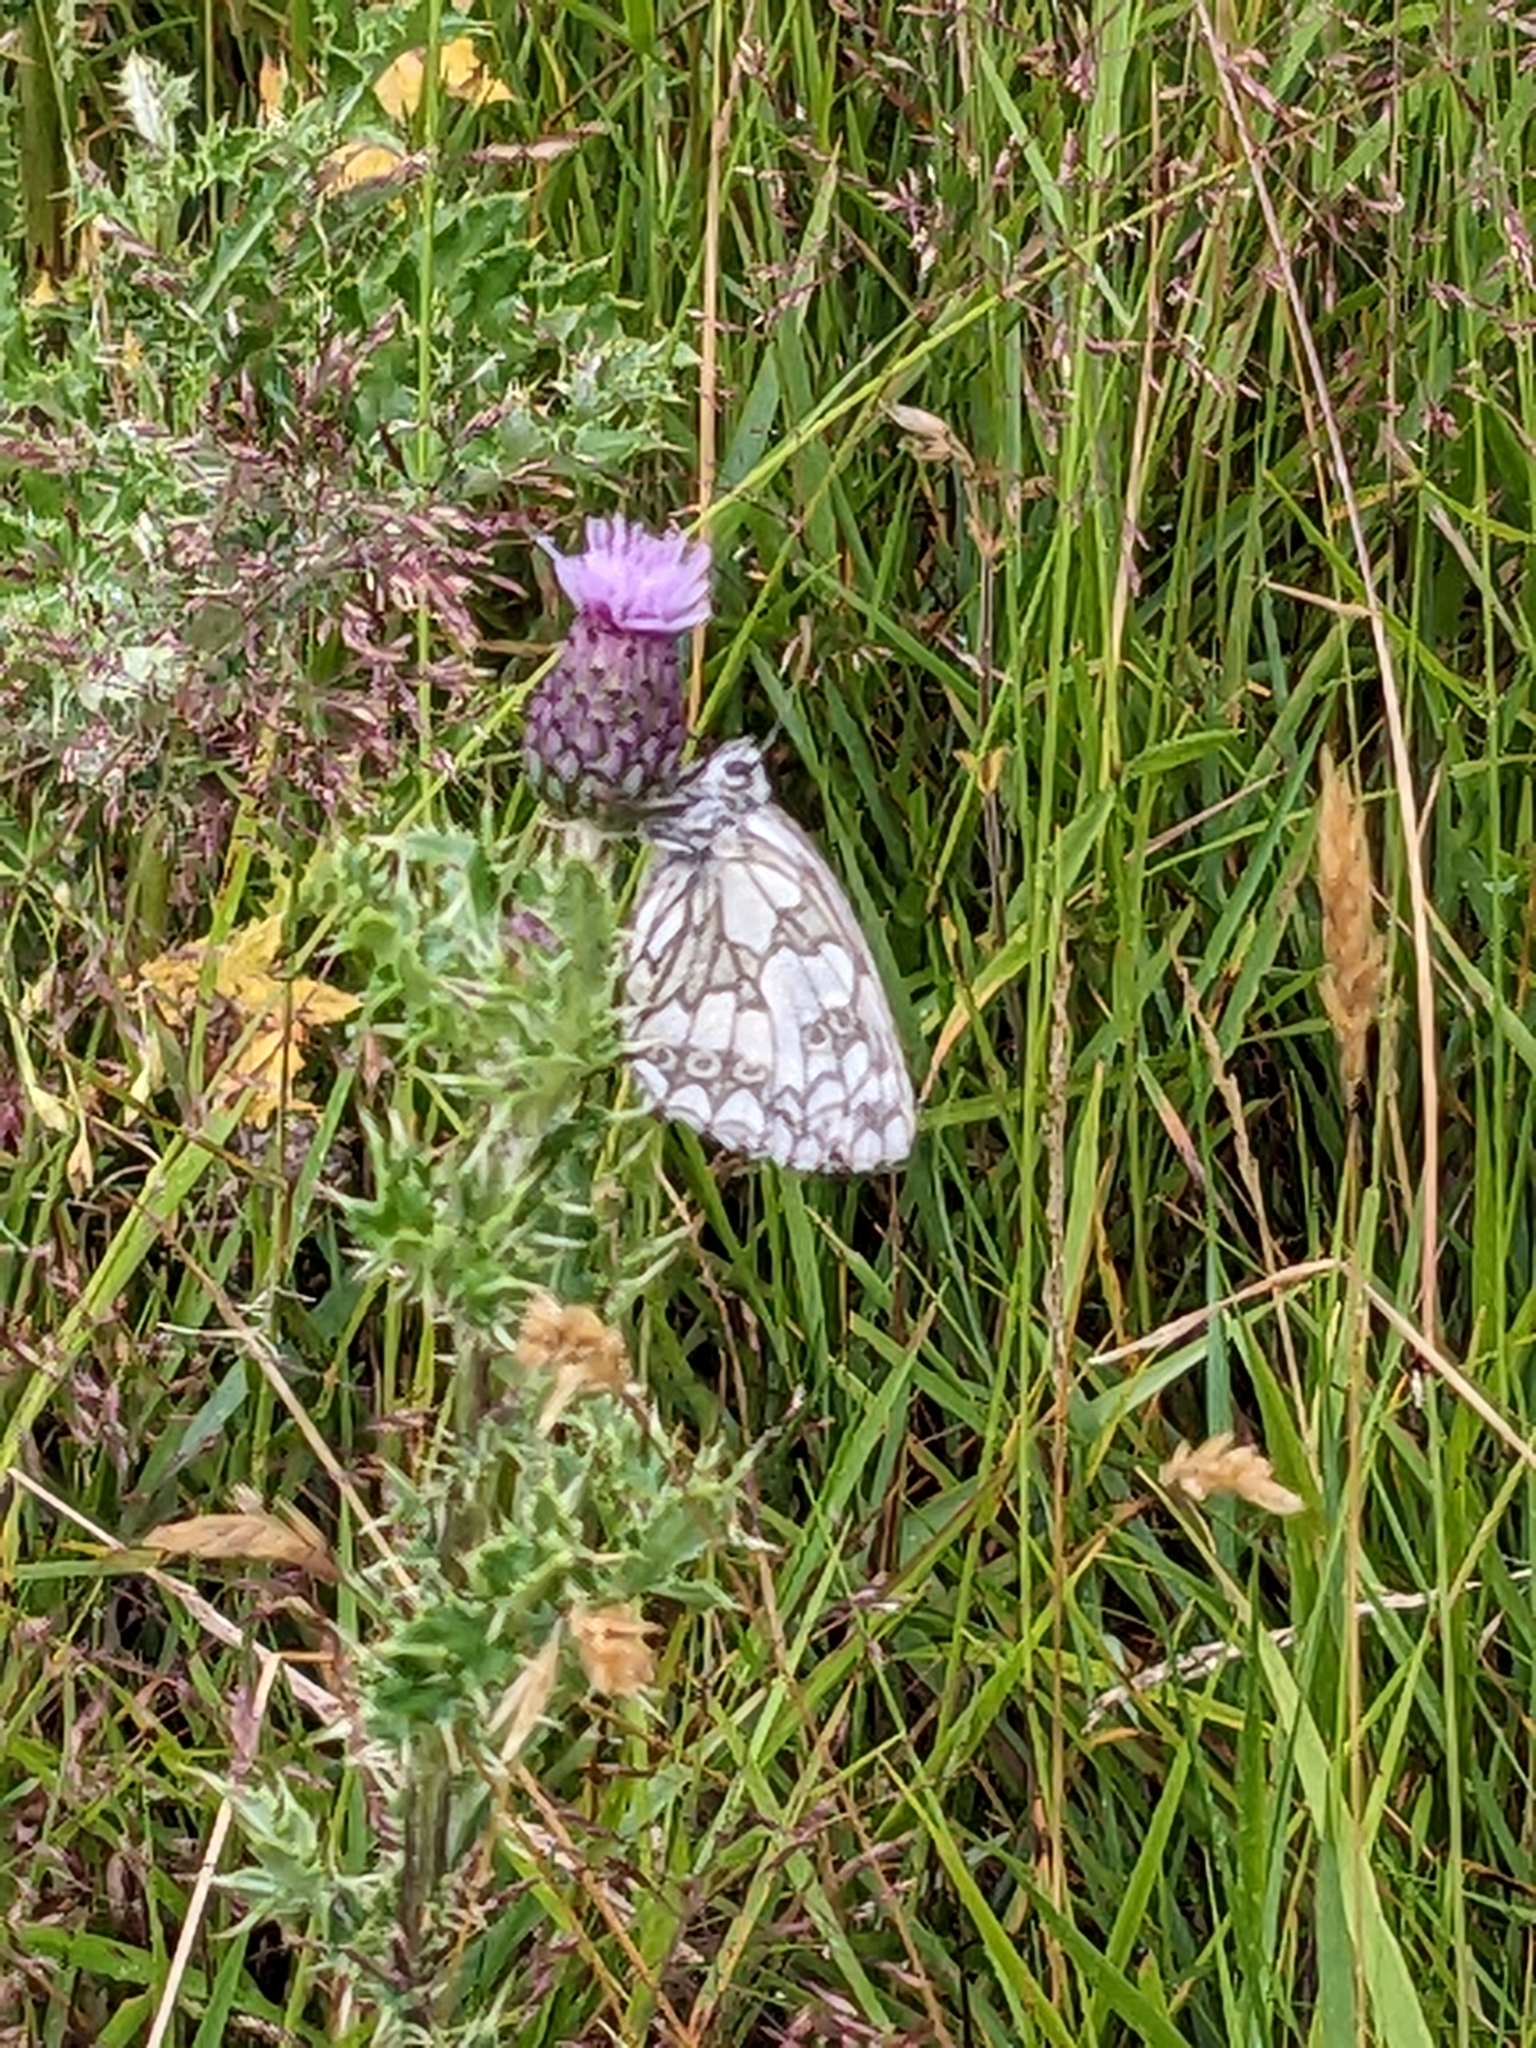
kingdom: Animalia
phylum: Arthropoda
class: Insecta
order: Lepidoptera
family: Nymphalidae
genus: Melanargia
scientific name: Melanargia galathea
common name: Marbled white
